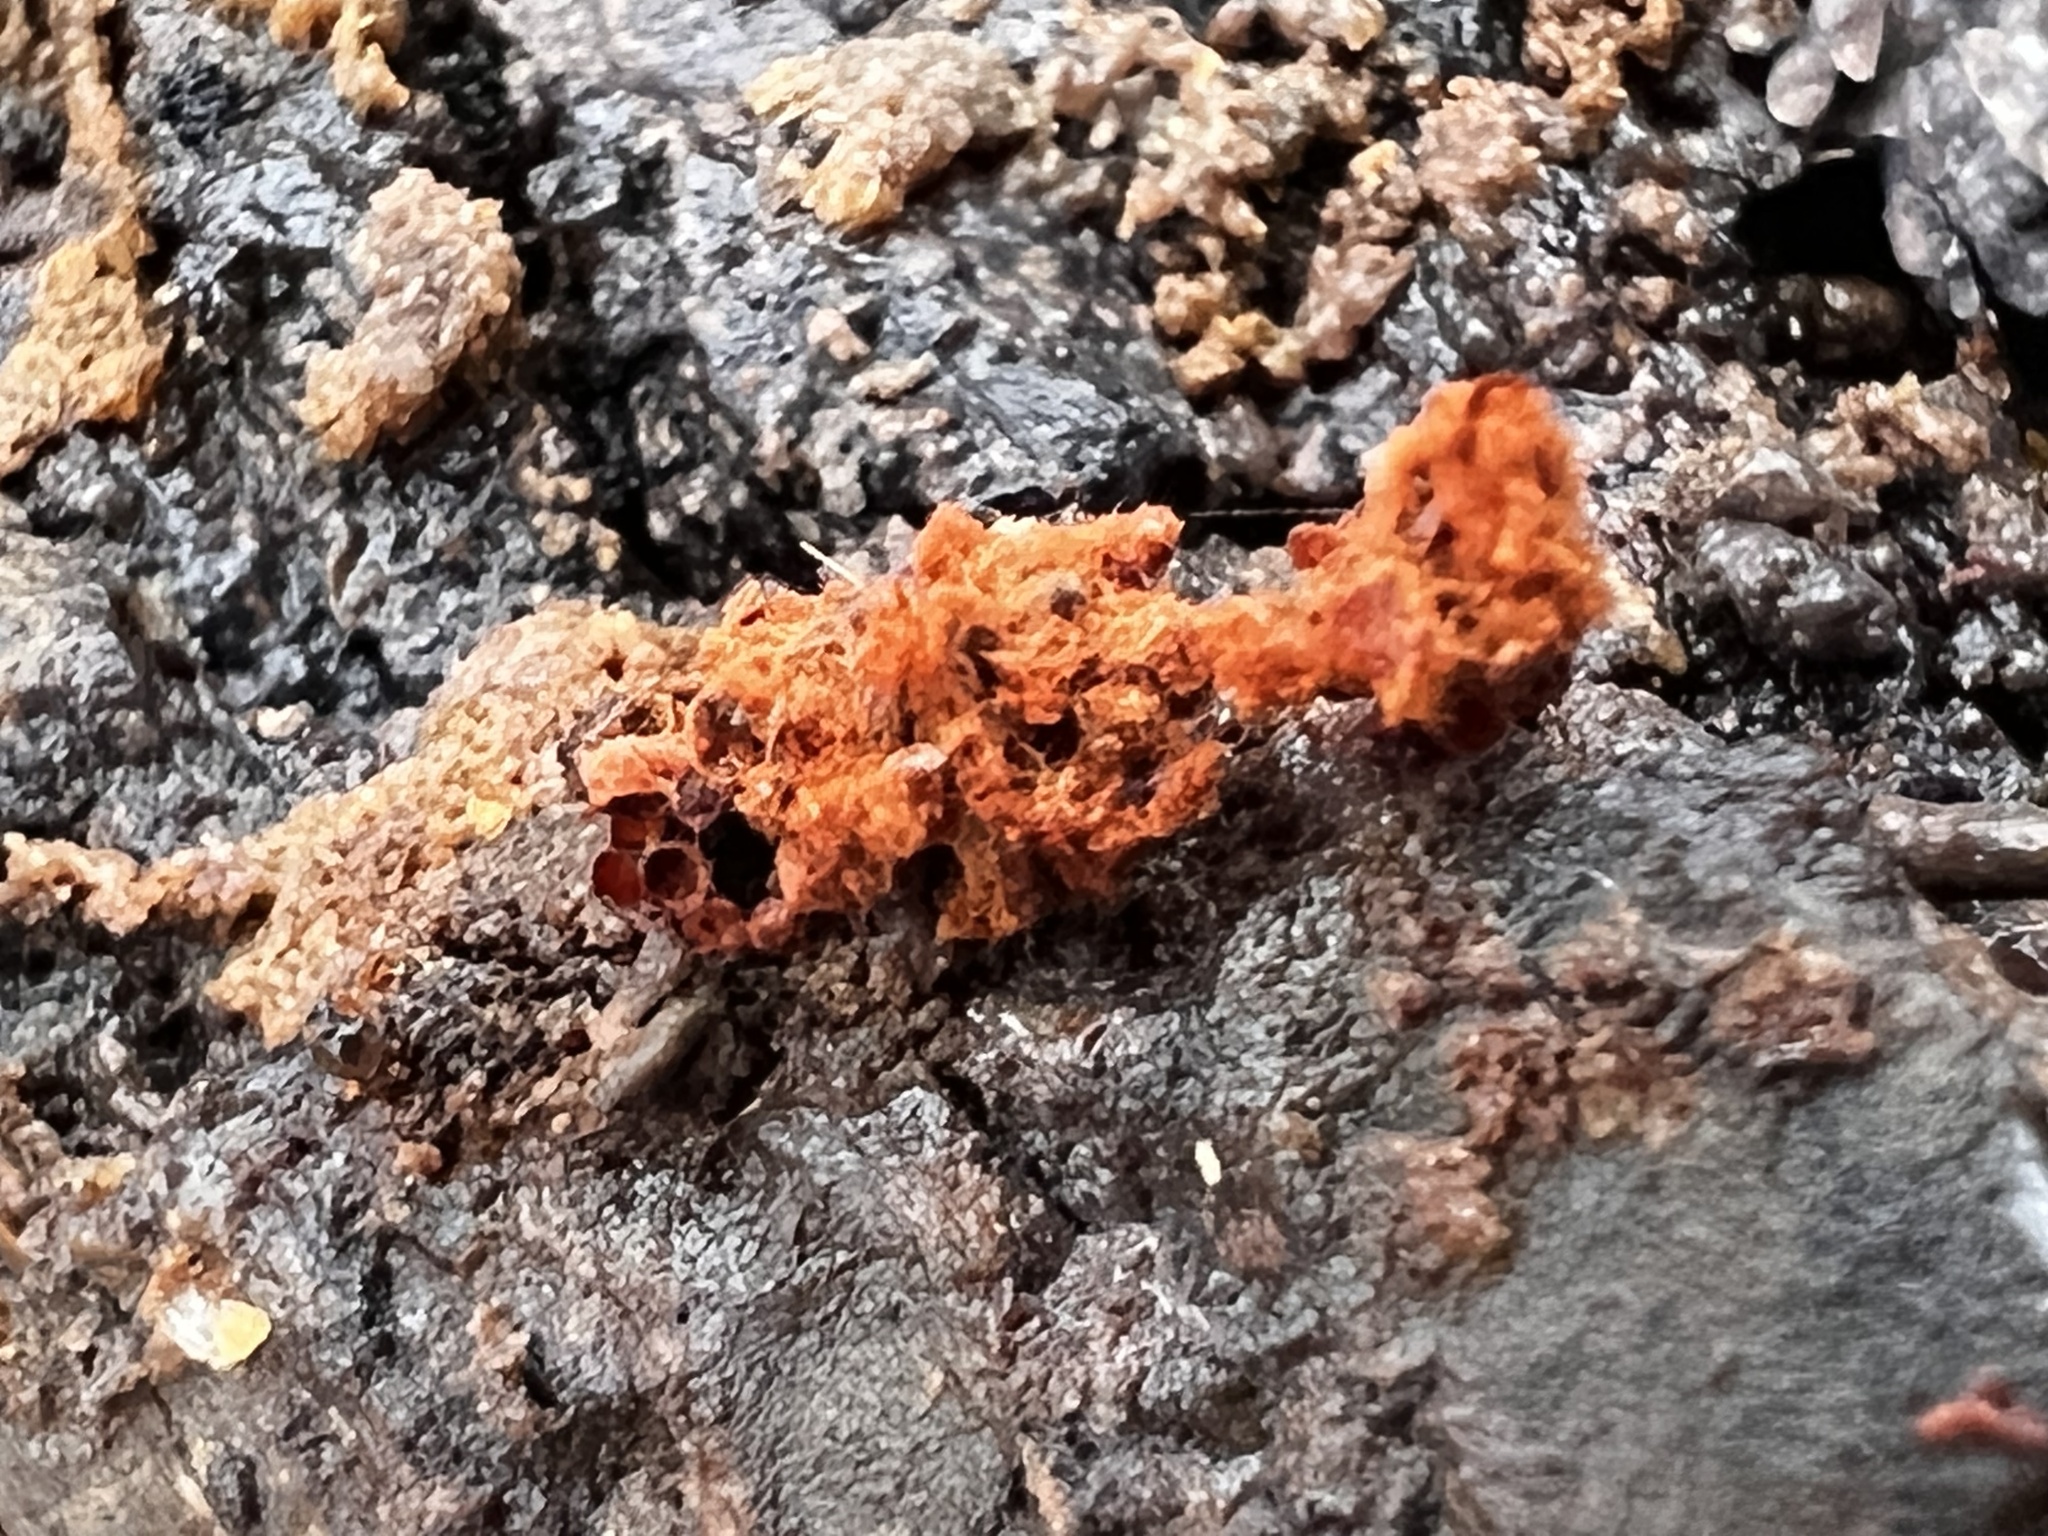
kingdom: Protozoa
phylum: Mycetozoa
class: Myxomycetes
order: Trichiales
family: Trichiaceae
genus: Metatrichia
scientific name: Metatrichia vesparia
